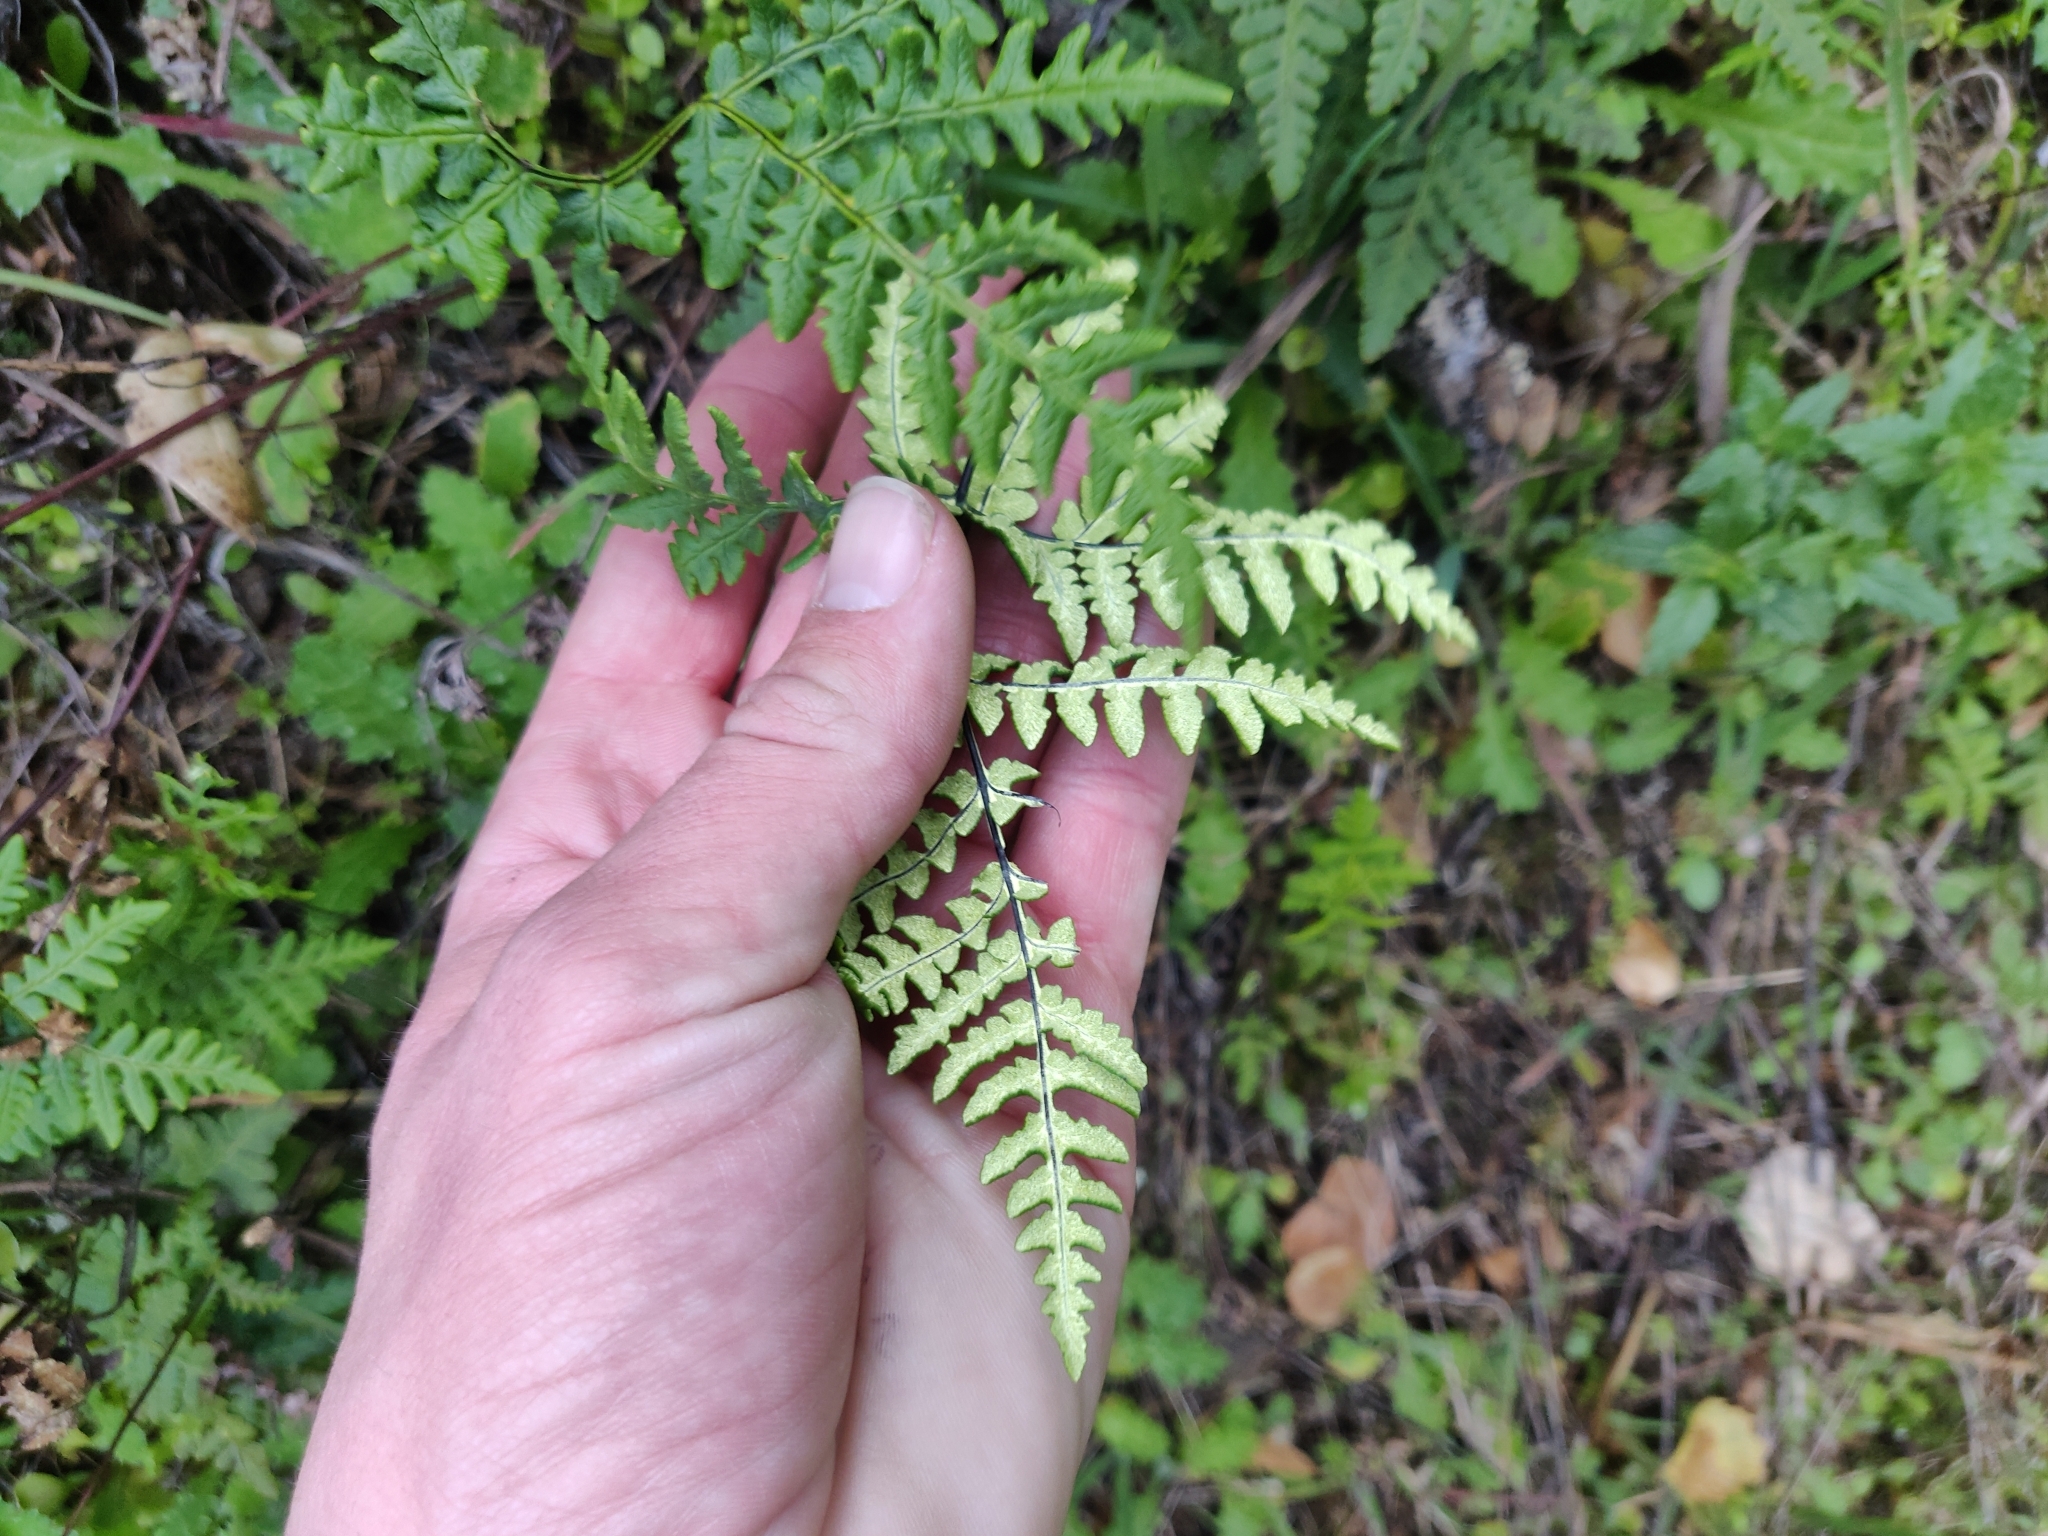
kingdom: Plantae
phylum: Tracheophyta
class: Polypodiopsida
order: Polypodiales
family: Pteridaceae
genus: Pentagramma
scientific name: Pentagramma triangularis
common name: Gold fern
